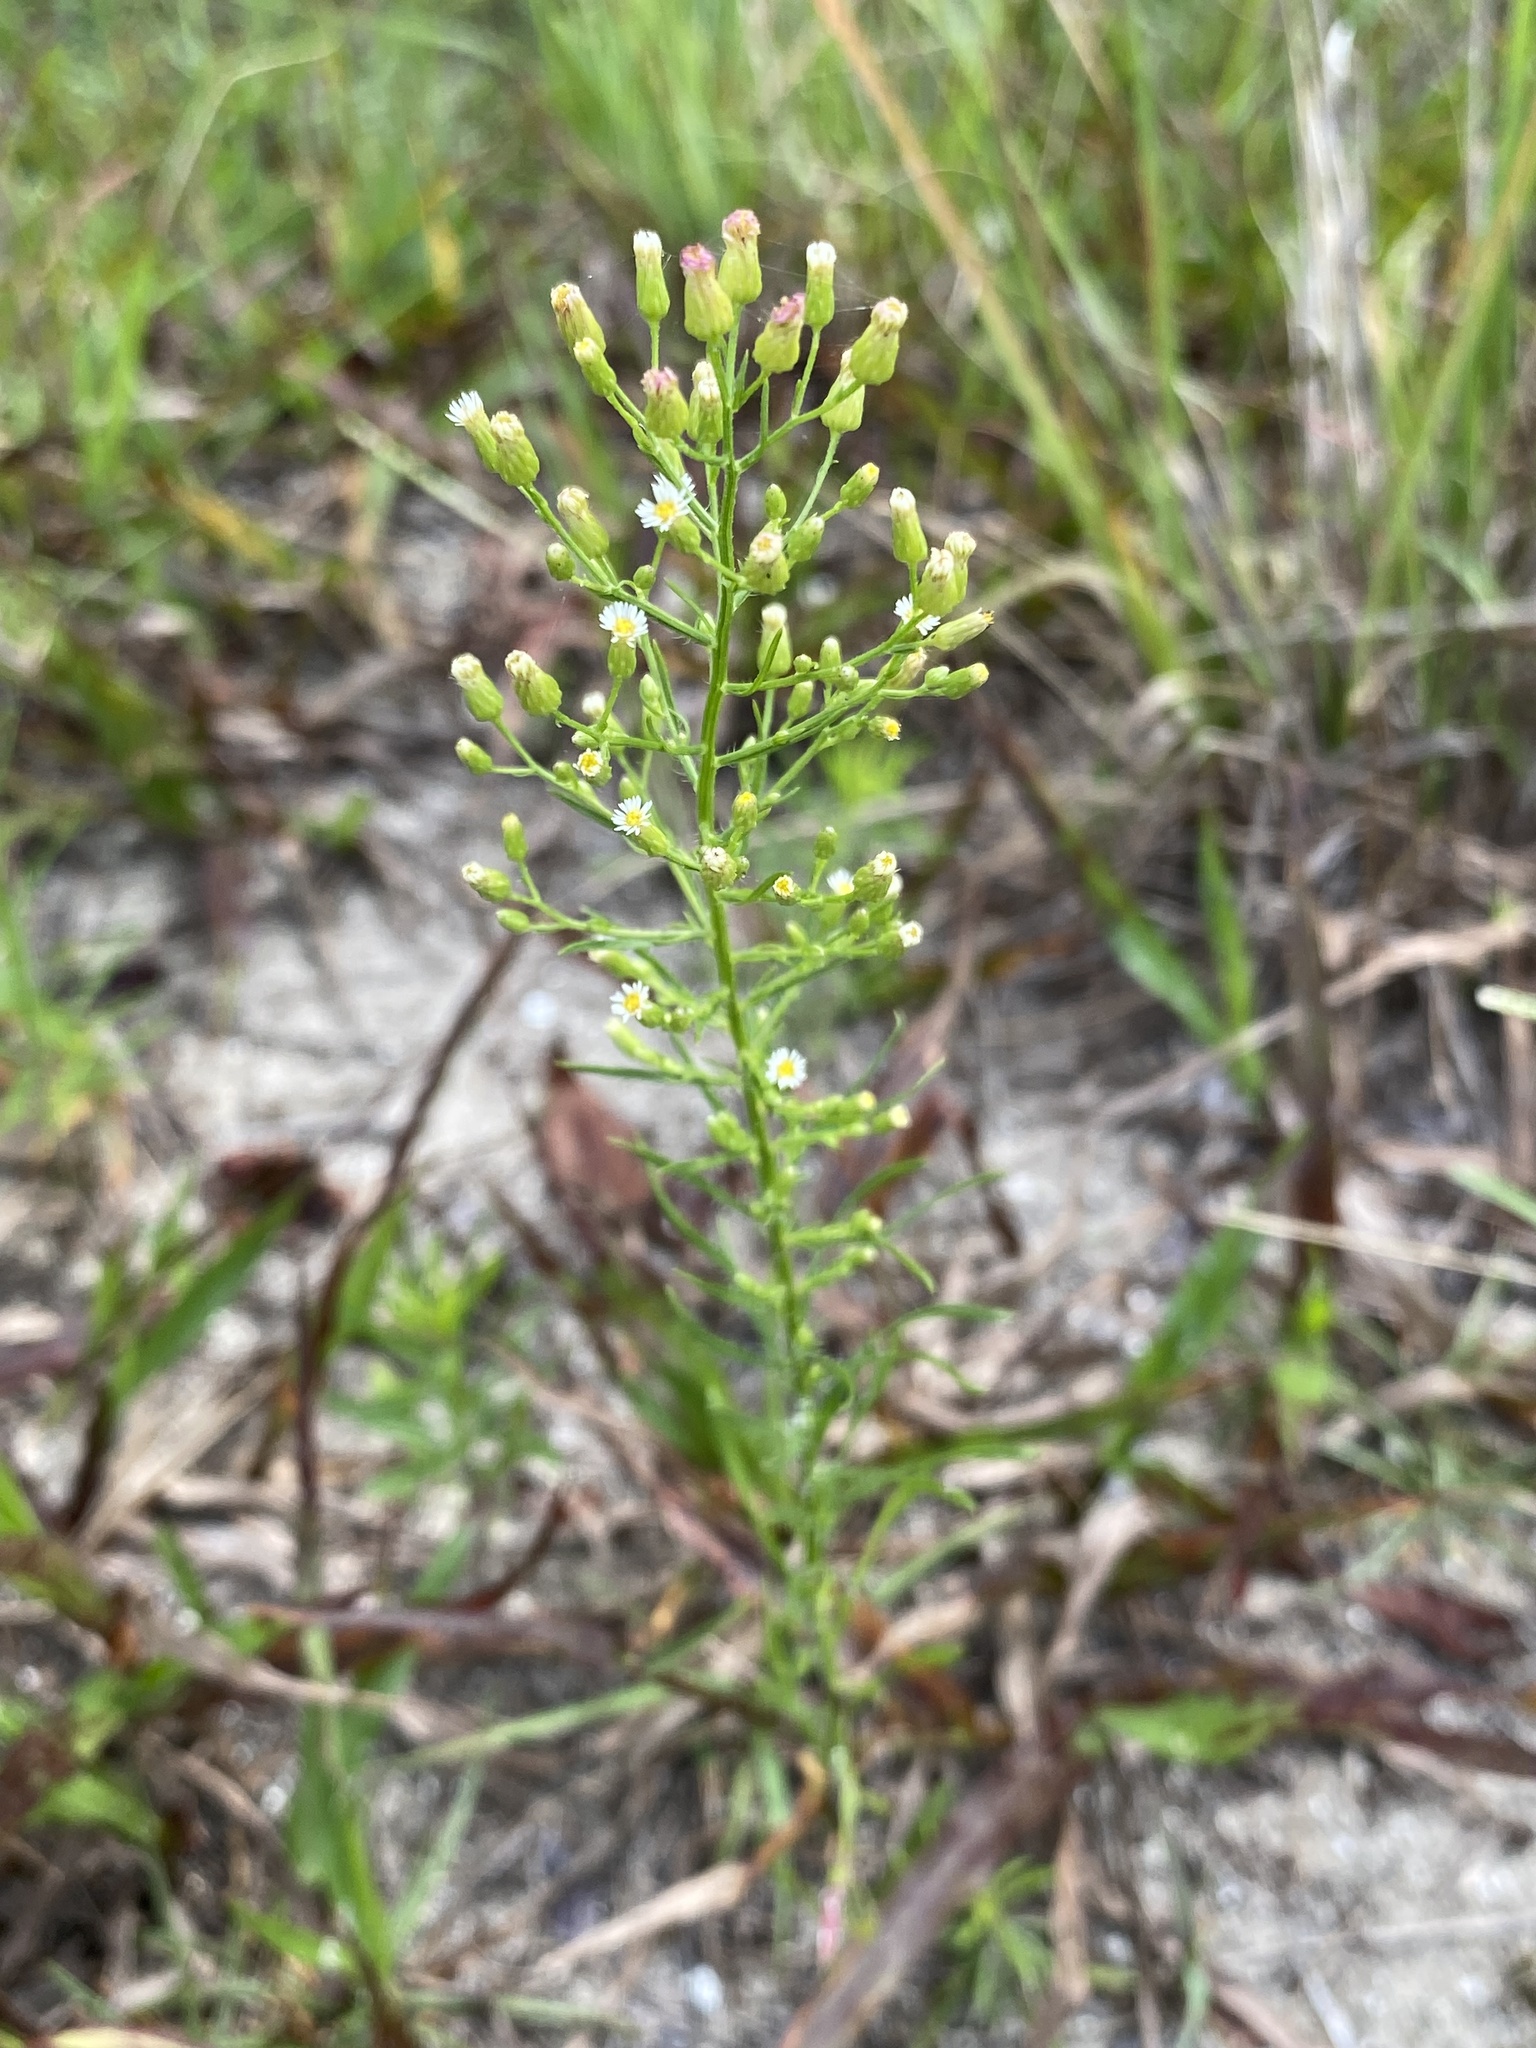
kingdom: Plantae
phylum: Tracheophyta
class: Magnoliopsida
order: Asterales
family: Asteraceae
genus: Erigeron
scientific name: Erigeron canadensis
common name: Canadian fleabane
